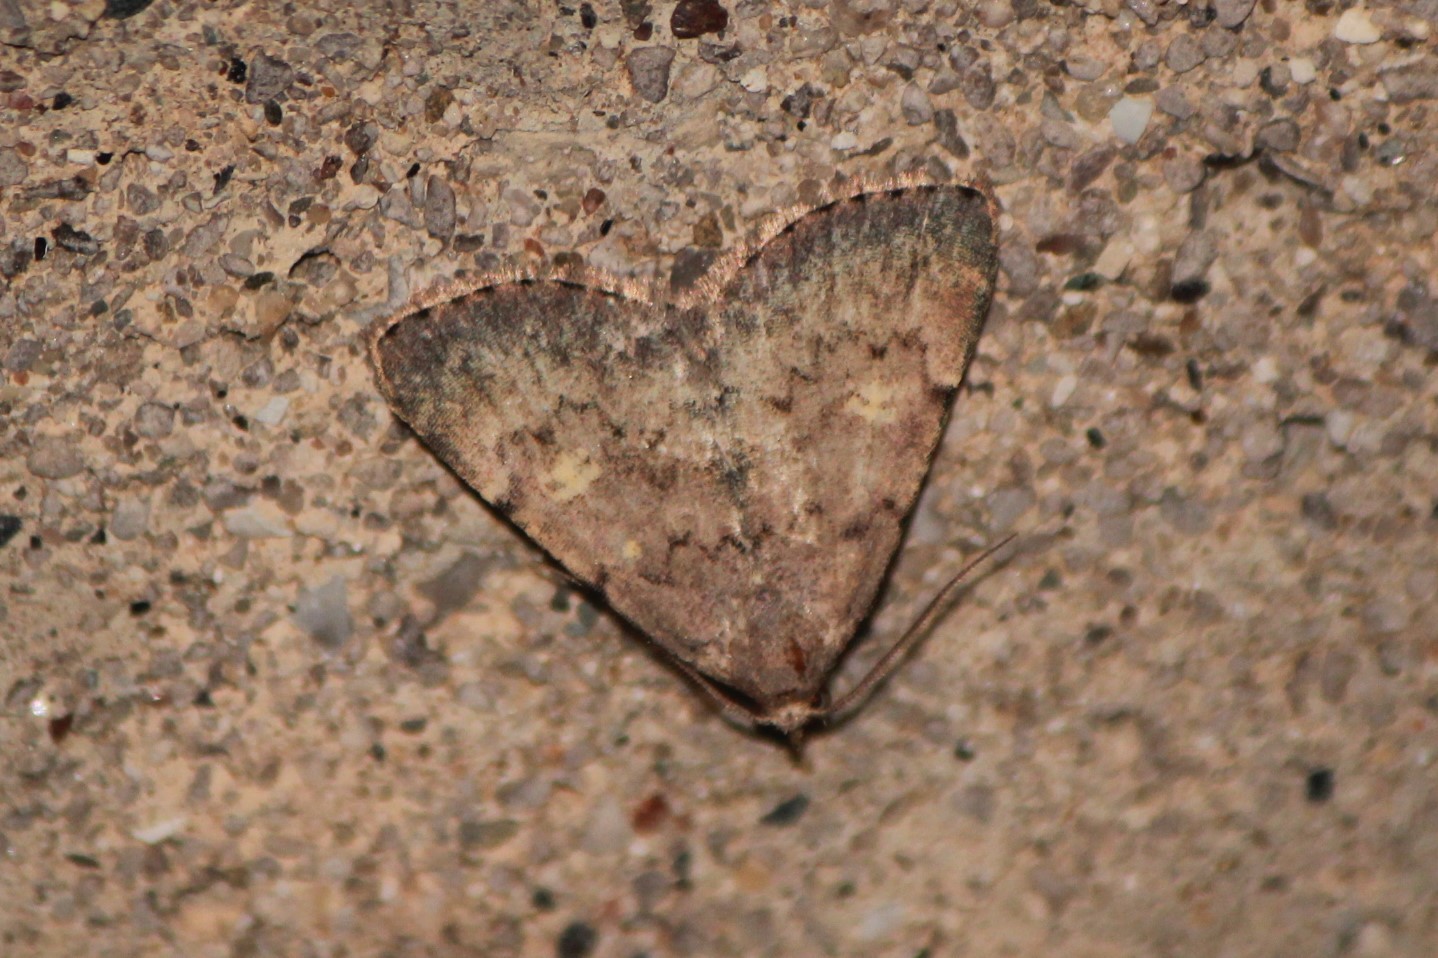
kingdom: Animalia
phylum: Arthropoda
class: Insecta
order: Lepidoptera
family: Erebidae
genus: Idia
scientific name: Idia aemula
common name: Common idia moth
